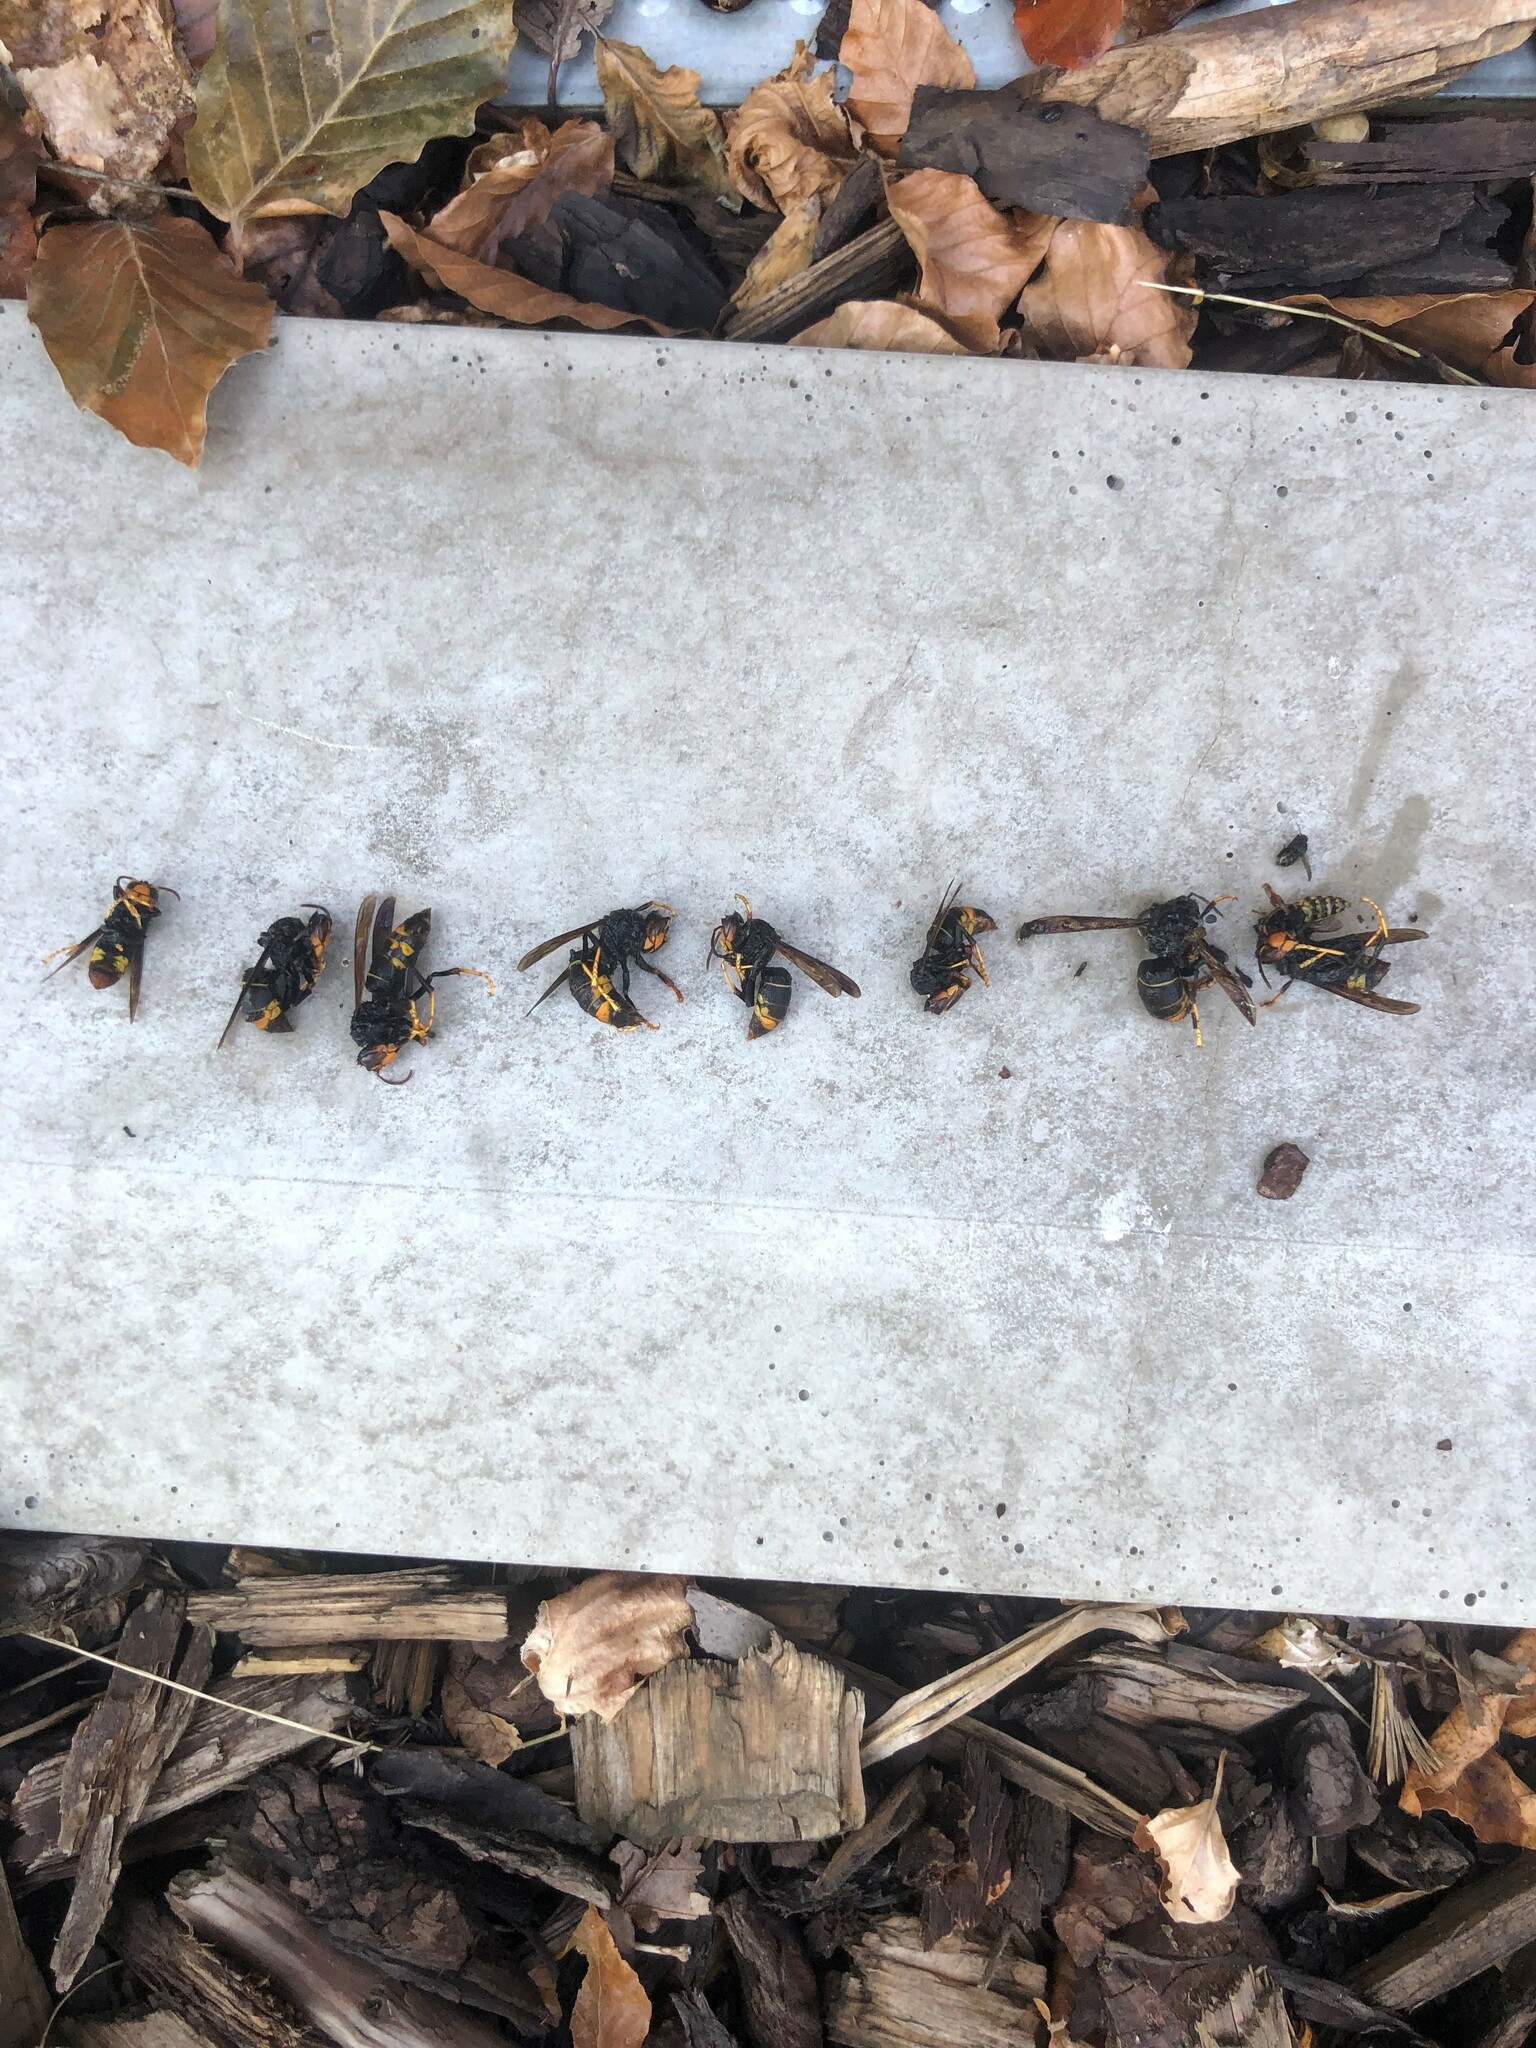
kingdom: Animalia
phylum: Arthropoda
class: Insecta
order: Hymenoptera
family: Vespidae
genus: Vespa
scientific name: Vespa velutina
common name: Asian hornet
